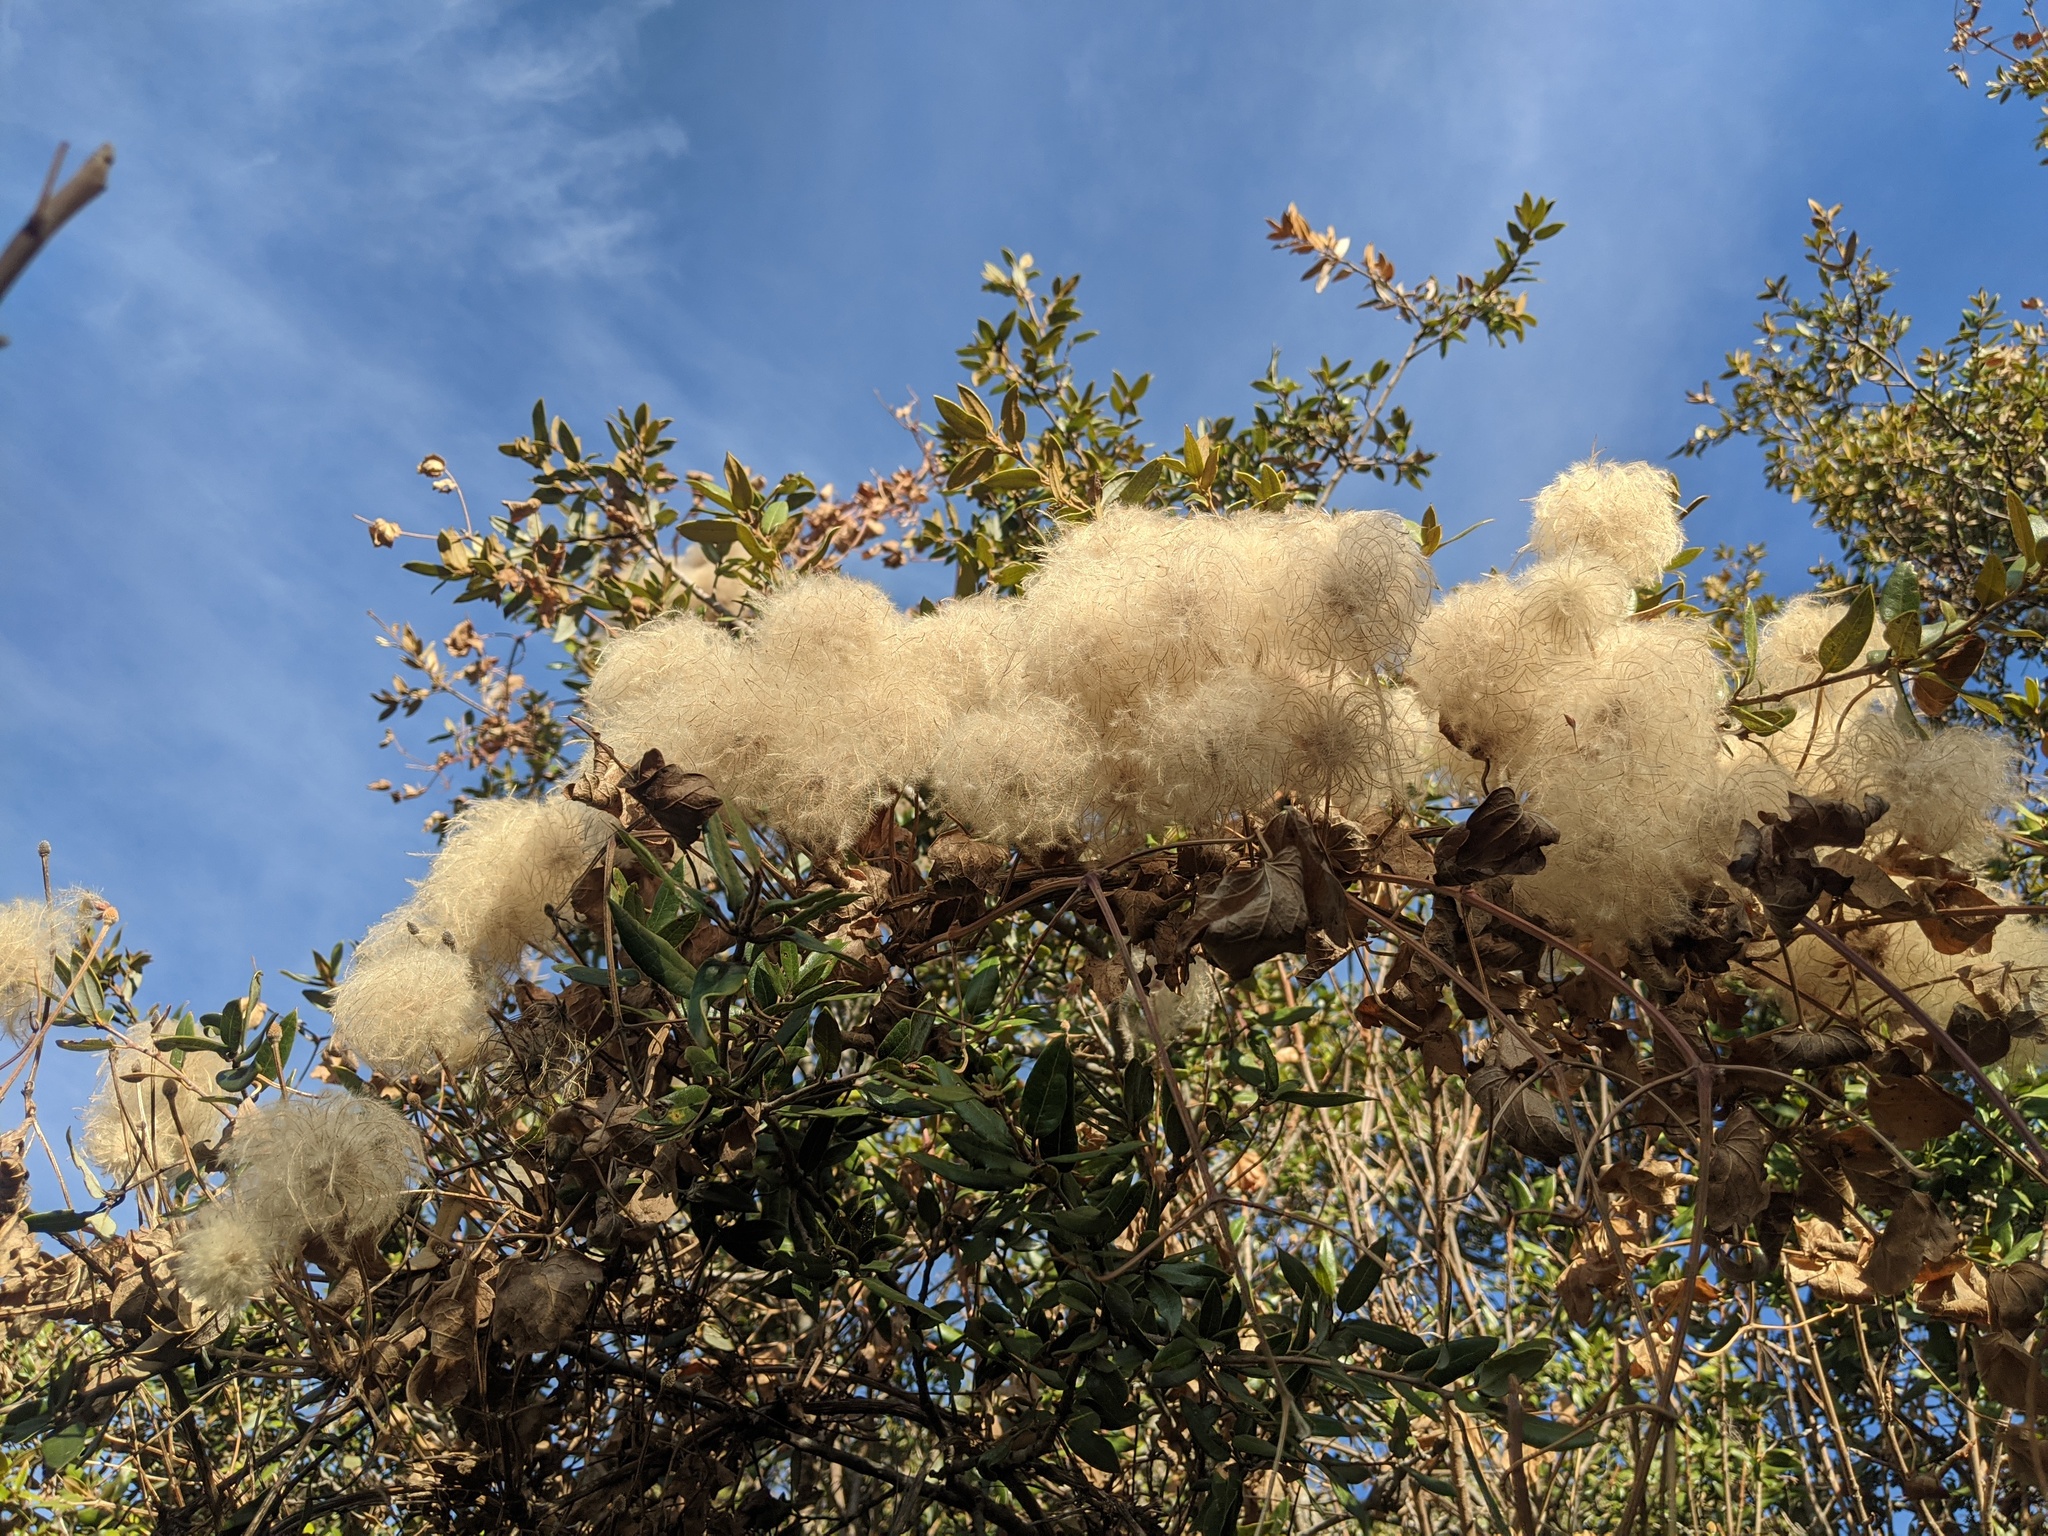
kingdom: Plantae
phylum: Tracheophyta
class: Magnoliopsida
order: Ranunculales
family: Ranunculaceae
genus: Clematis
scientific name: Clematis lasiantha
